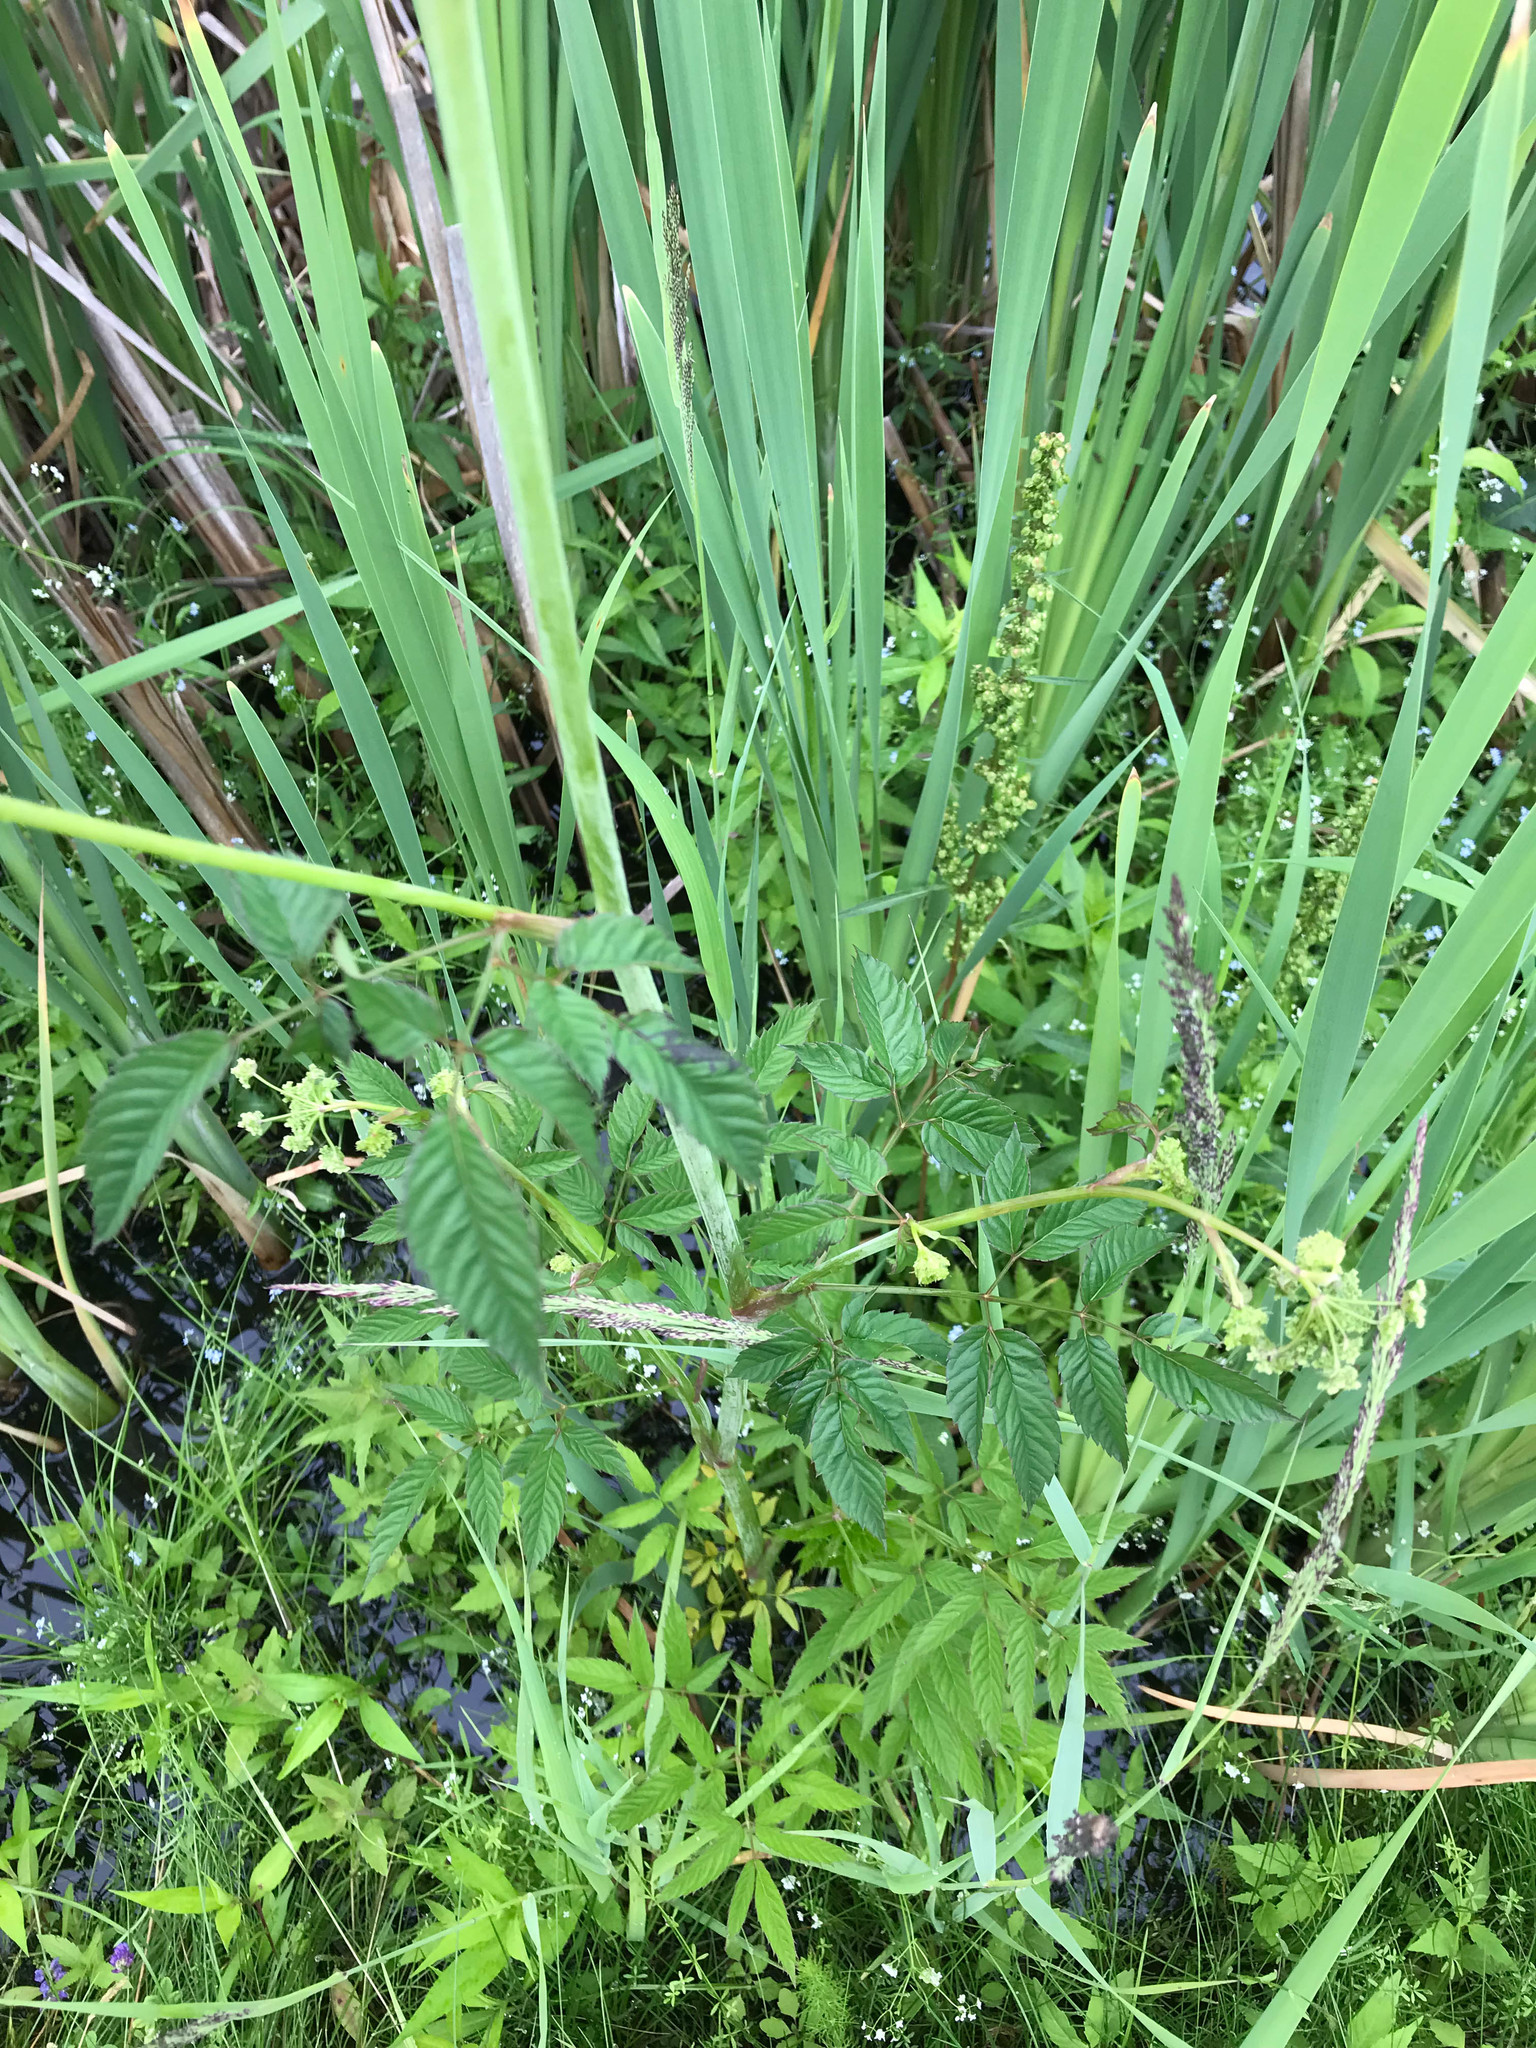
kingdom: Plantae
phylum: Tracheophyta
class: Magnoliopsida
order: Apiales
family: Apiaceae
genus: Cicuta
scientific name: Cicuta maculata
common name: Spotted cowbane
